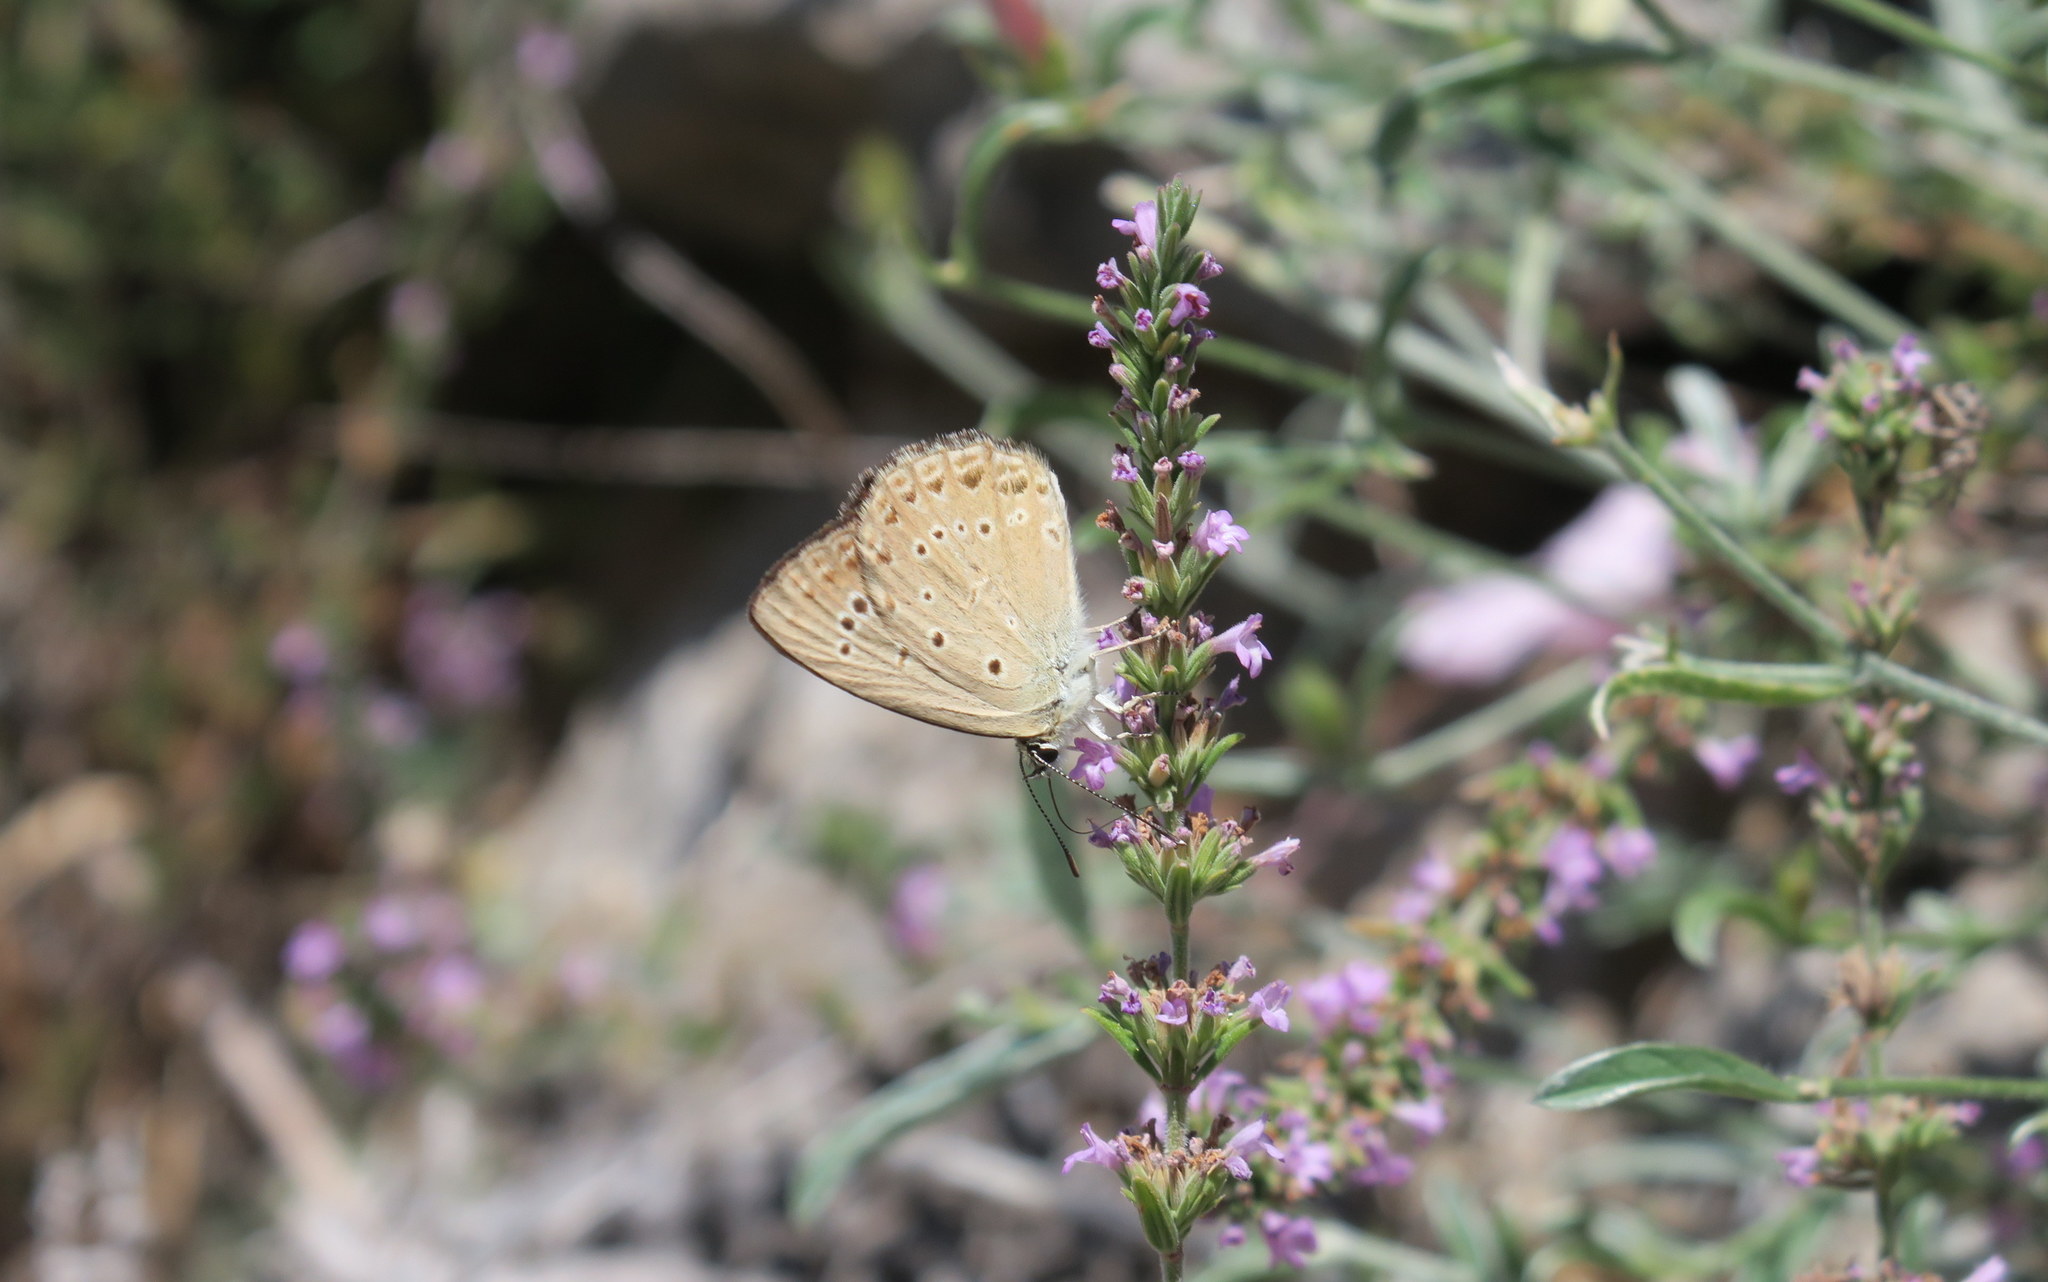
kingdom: Animalia
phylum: Arthropoda
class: Insecta
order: Lepidoptera
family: Lycaenidae
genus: Agrodiaetus
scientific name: Agrodiaetus admetus
